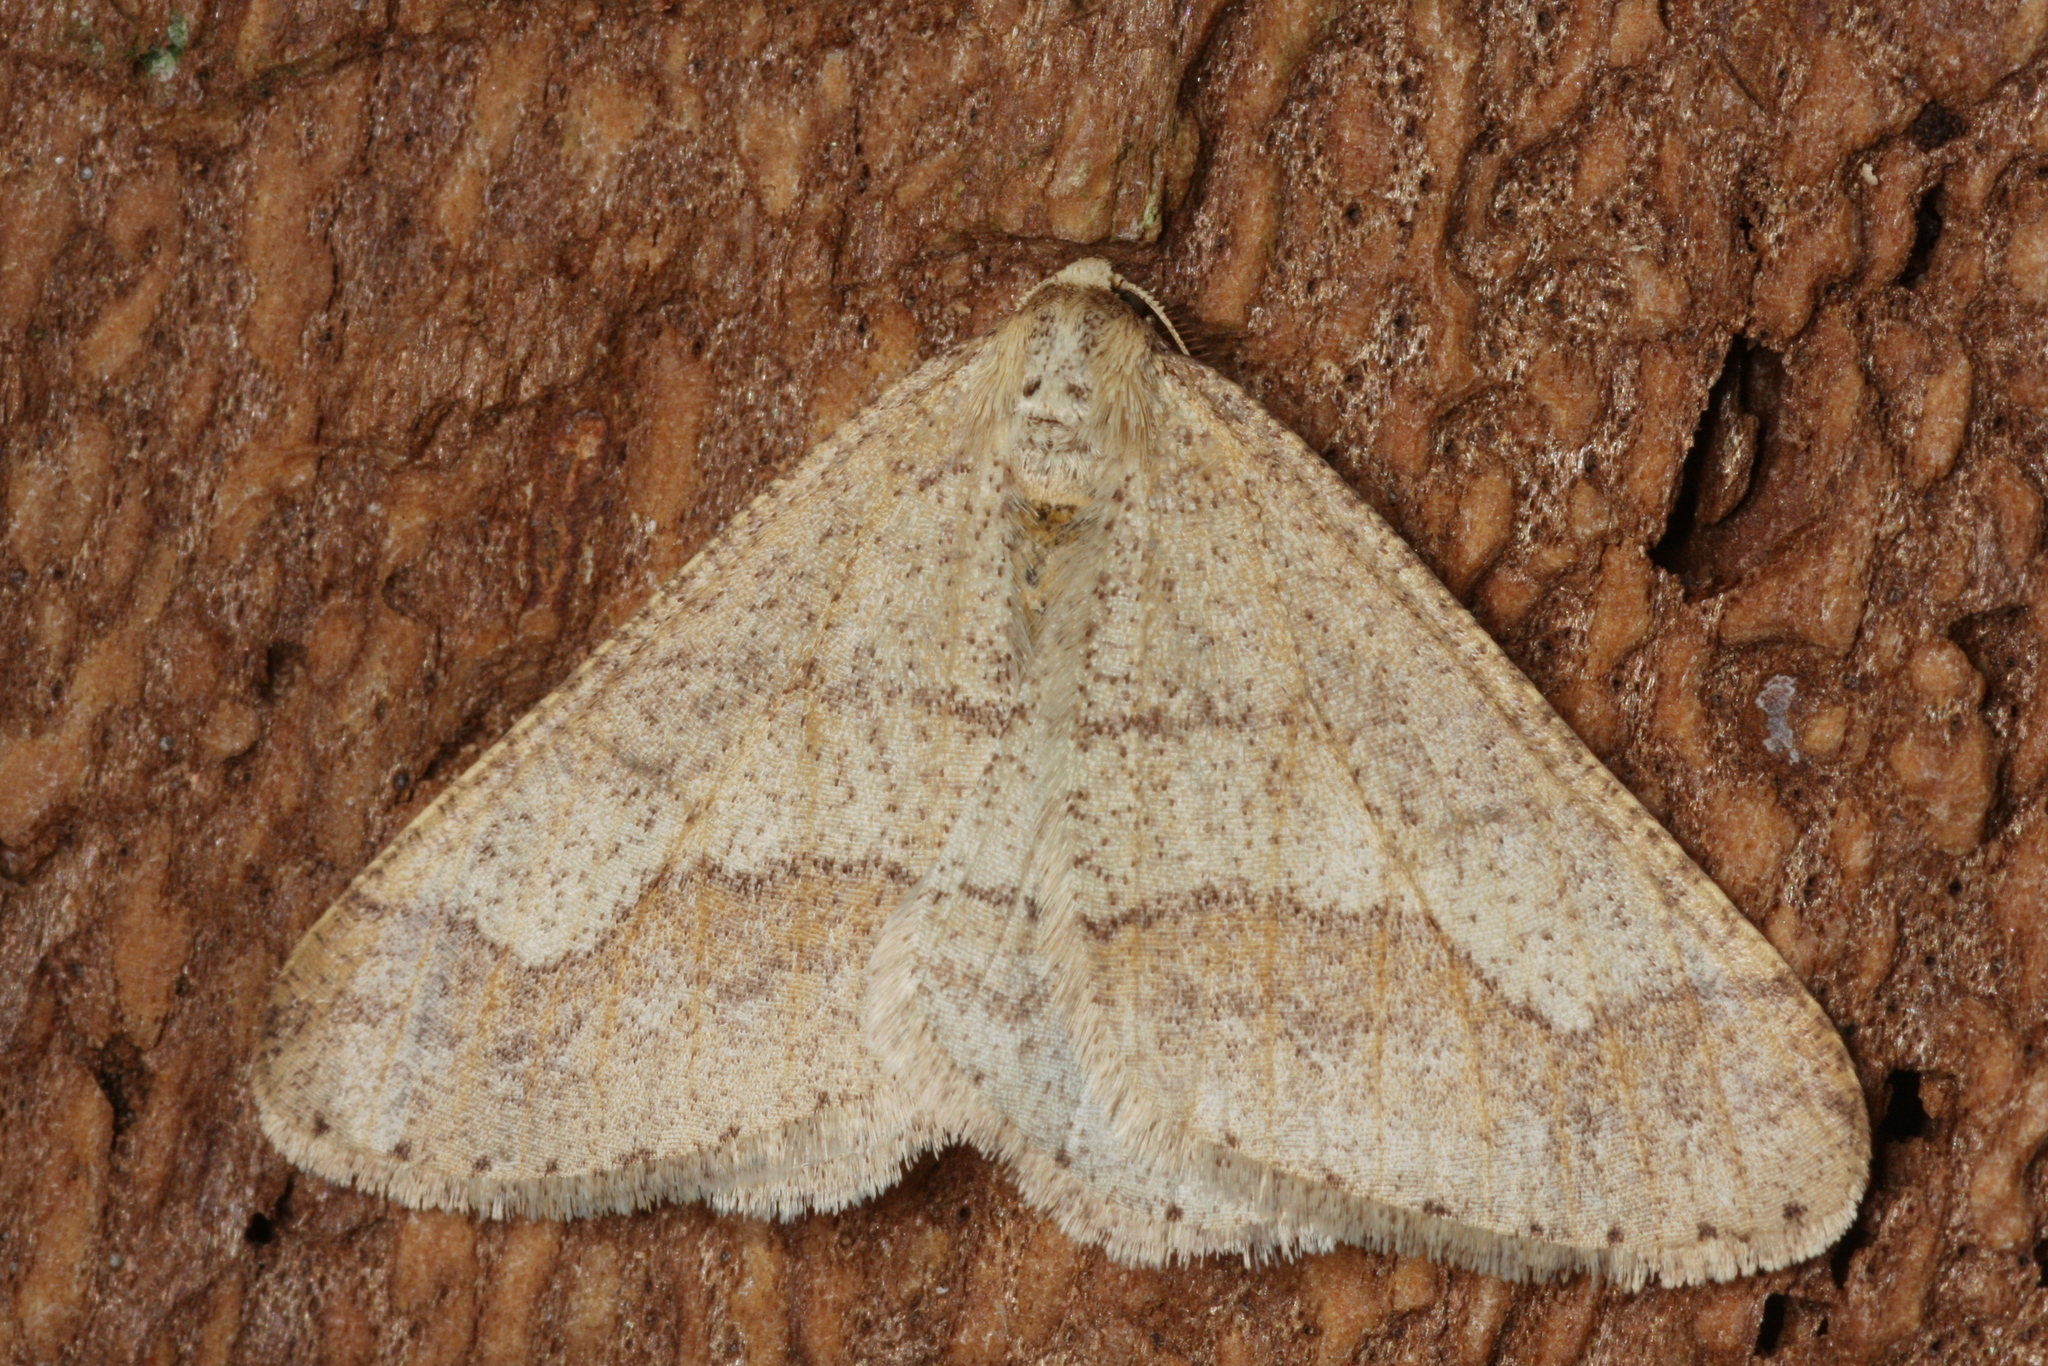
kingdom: Animalia
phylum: Arthropoda
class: Insecta
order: Lepidoptera
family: Geometridae
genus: Agriopis
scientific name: Agriopis marginaria
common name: Dotted border
